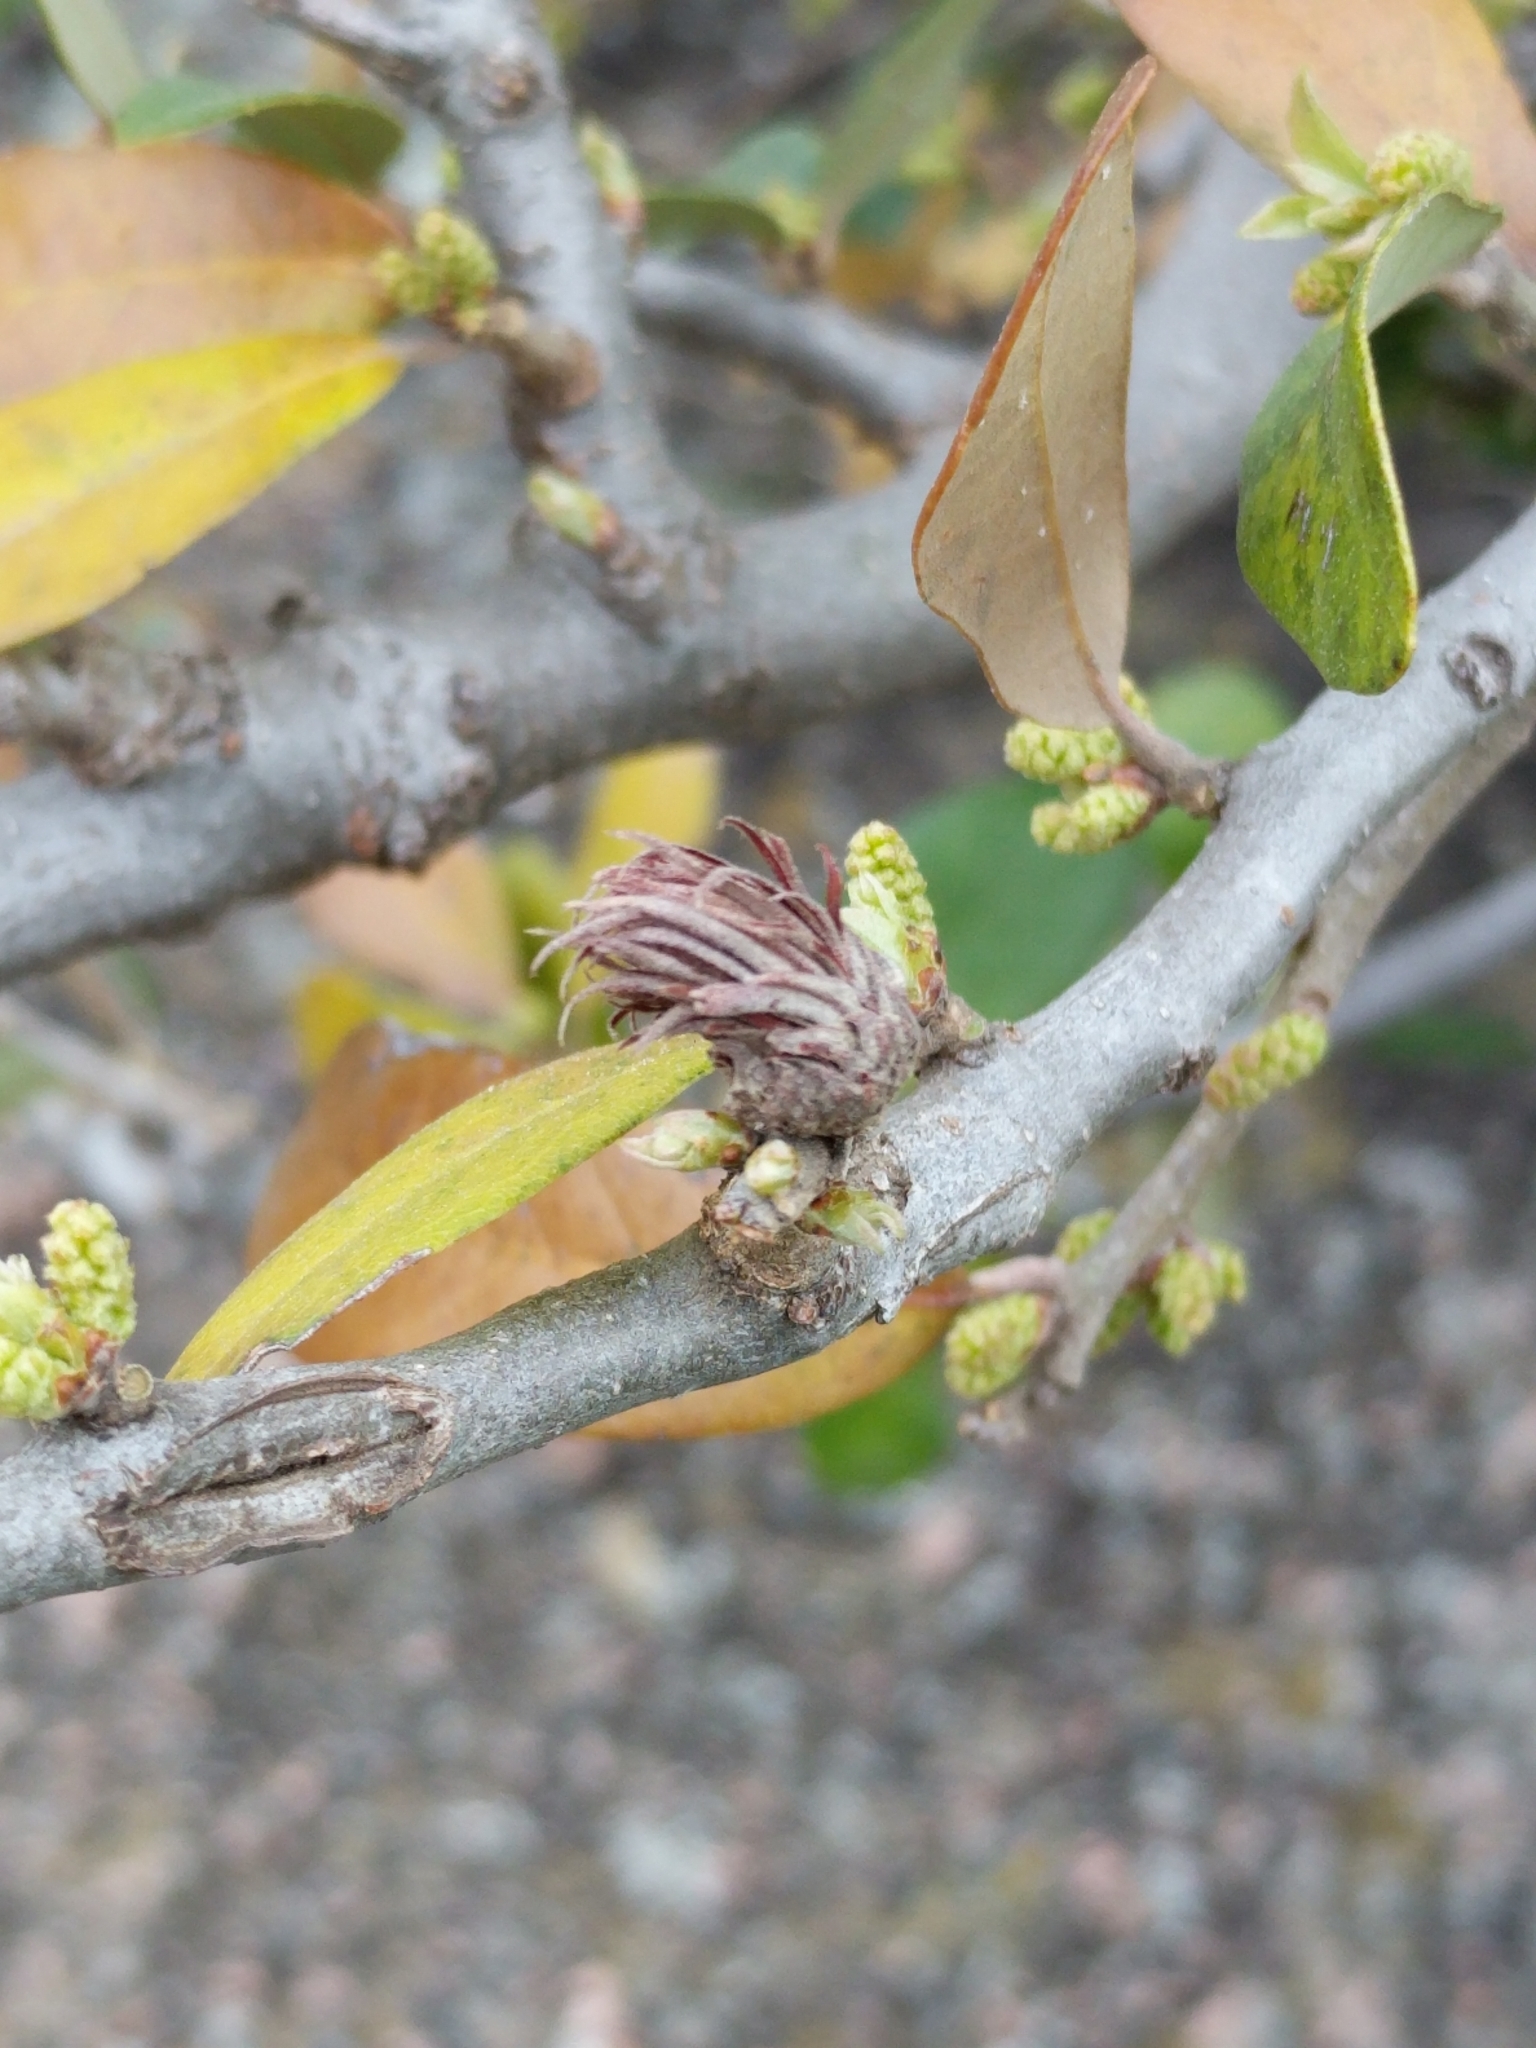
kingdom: Animalia
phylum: Arthropoda
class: Insecta
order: Hymenoptera
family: Cynipidae
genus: Andricus
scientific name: Andricus quercusfoliatus
